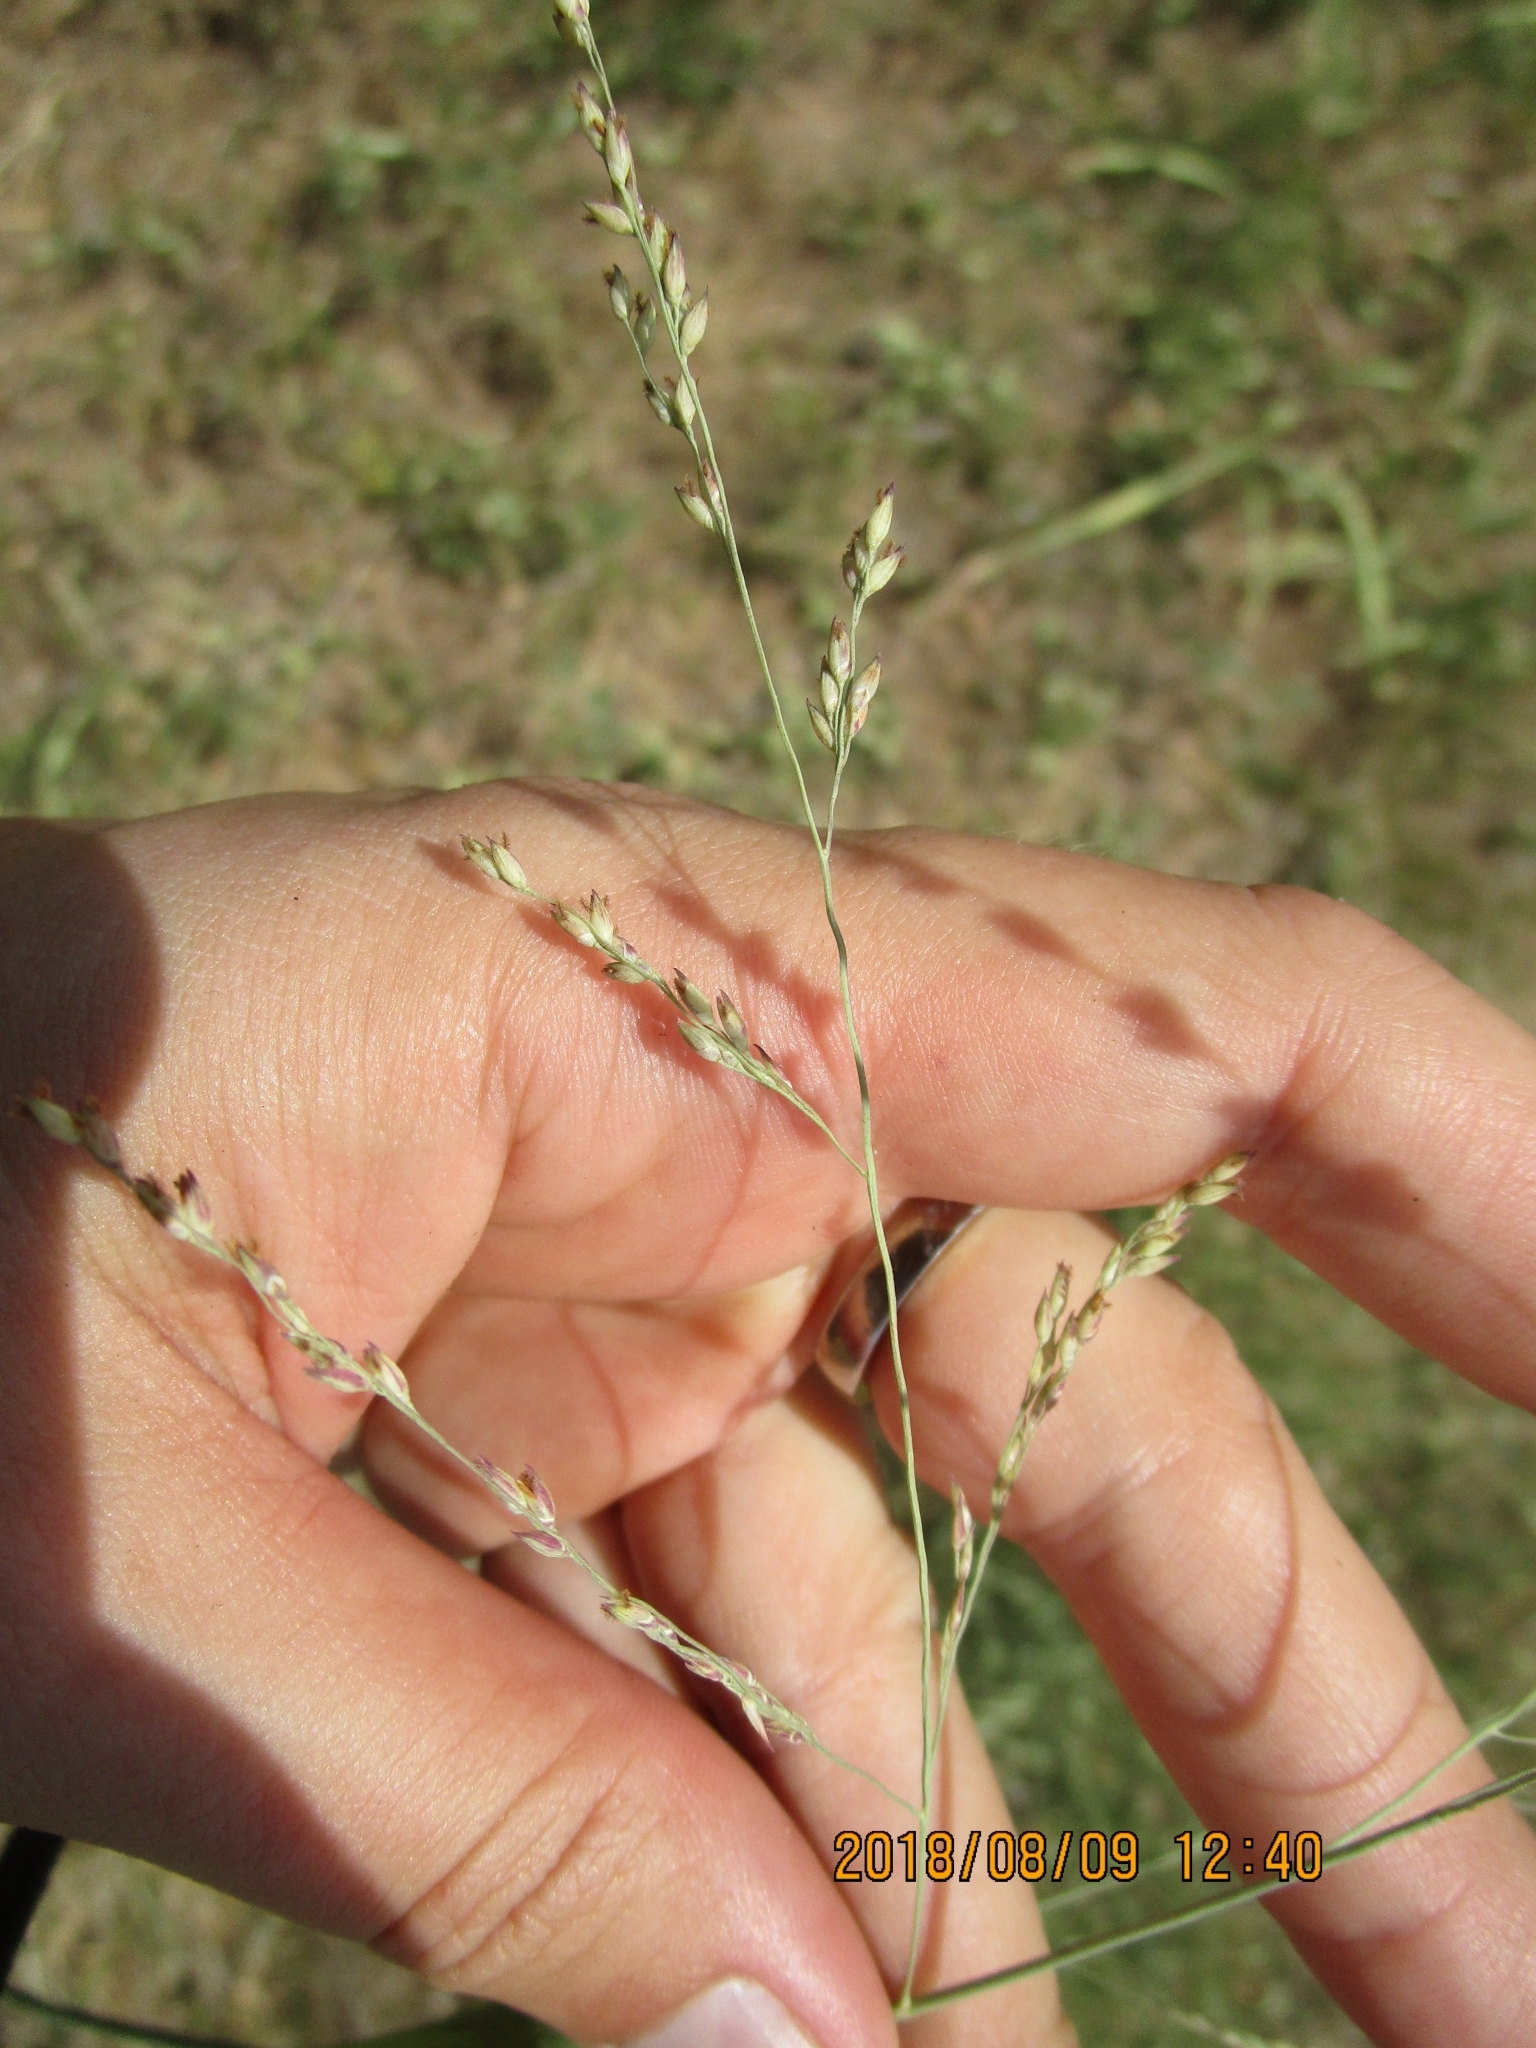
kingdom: Plantae
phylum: Tracheophyta
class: Liliopsida
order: Poales
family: Poaceae
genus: Panicum
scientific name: Panicum coloratum
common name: Kleingrass
